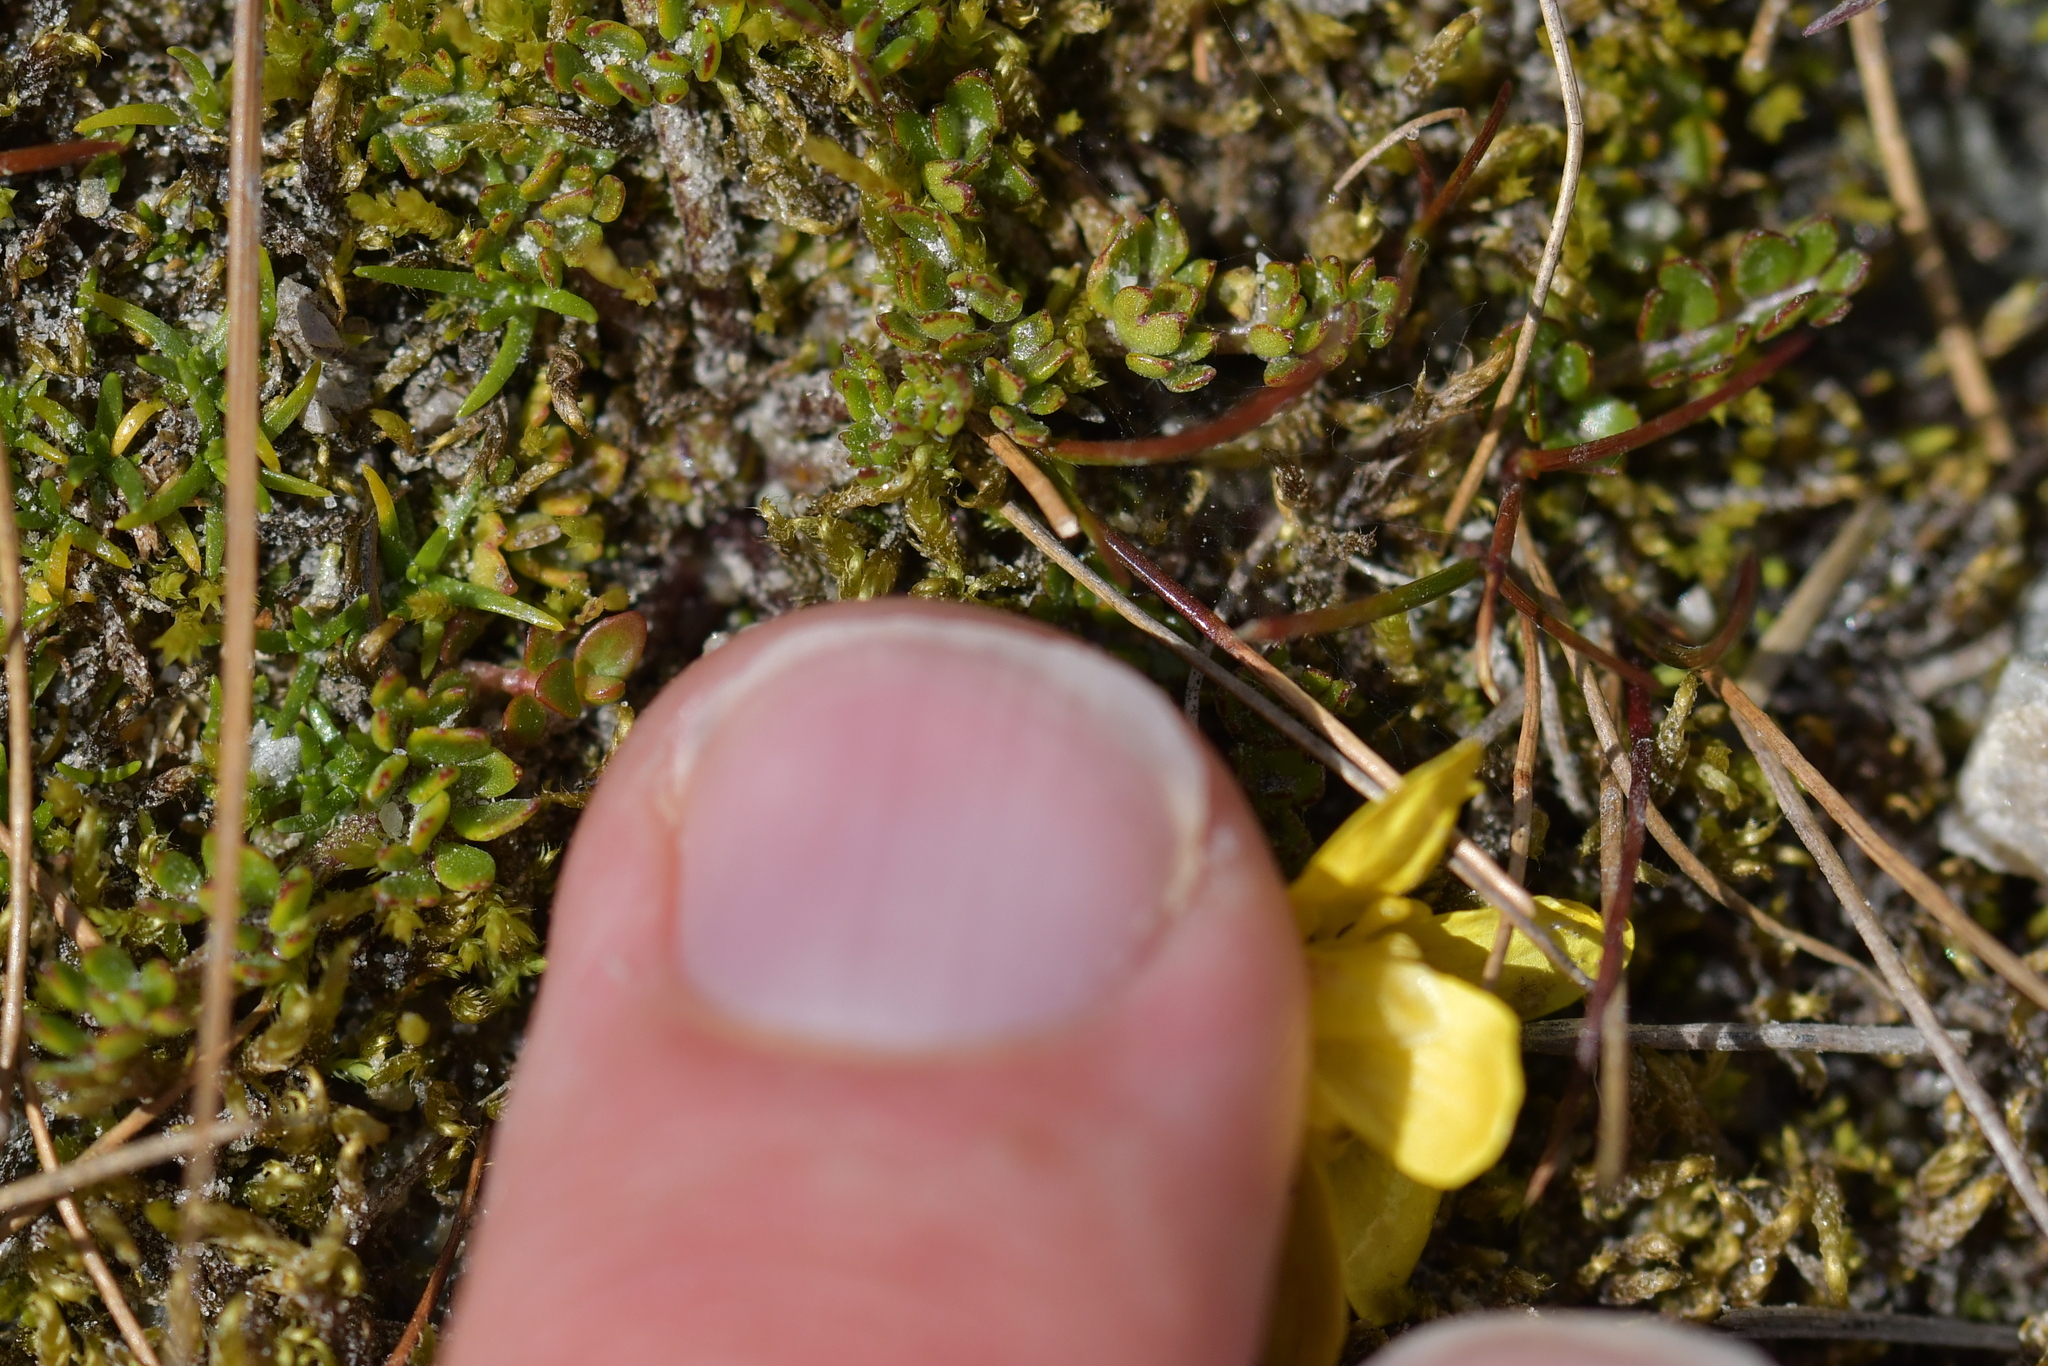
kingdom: Plantae
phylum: Tracheophyta
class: Magnoliopsida
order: Ranunculales
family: Ranunculaceae
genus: Ranunculus
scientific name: Ranunculus gracilipes
